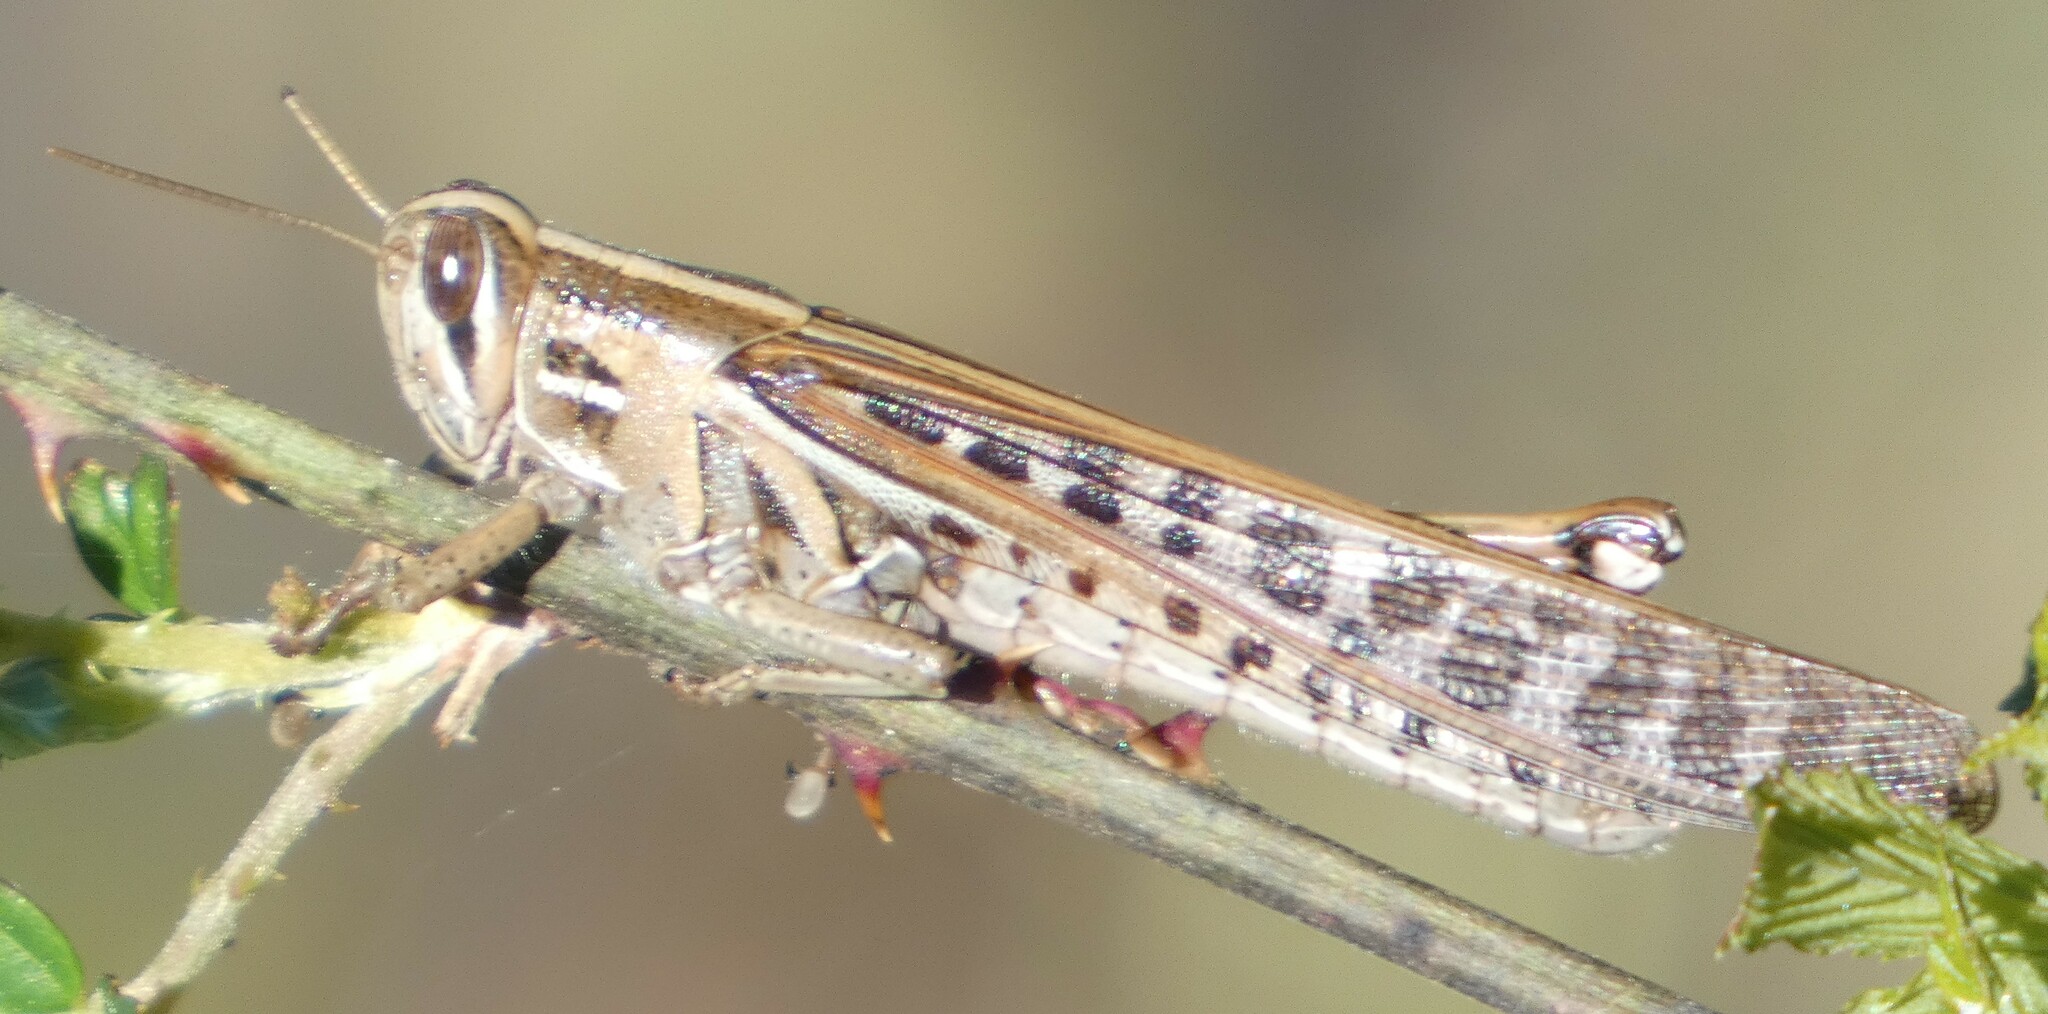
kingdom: Animalia
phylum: Arthropoda
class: Insecta
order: Orthoptera
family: Acrididae
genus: Schistocerca
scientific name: Schistocerca americana
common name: American bird locust
